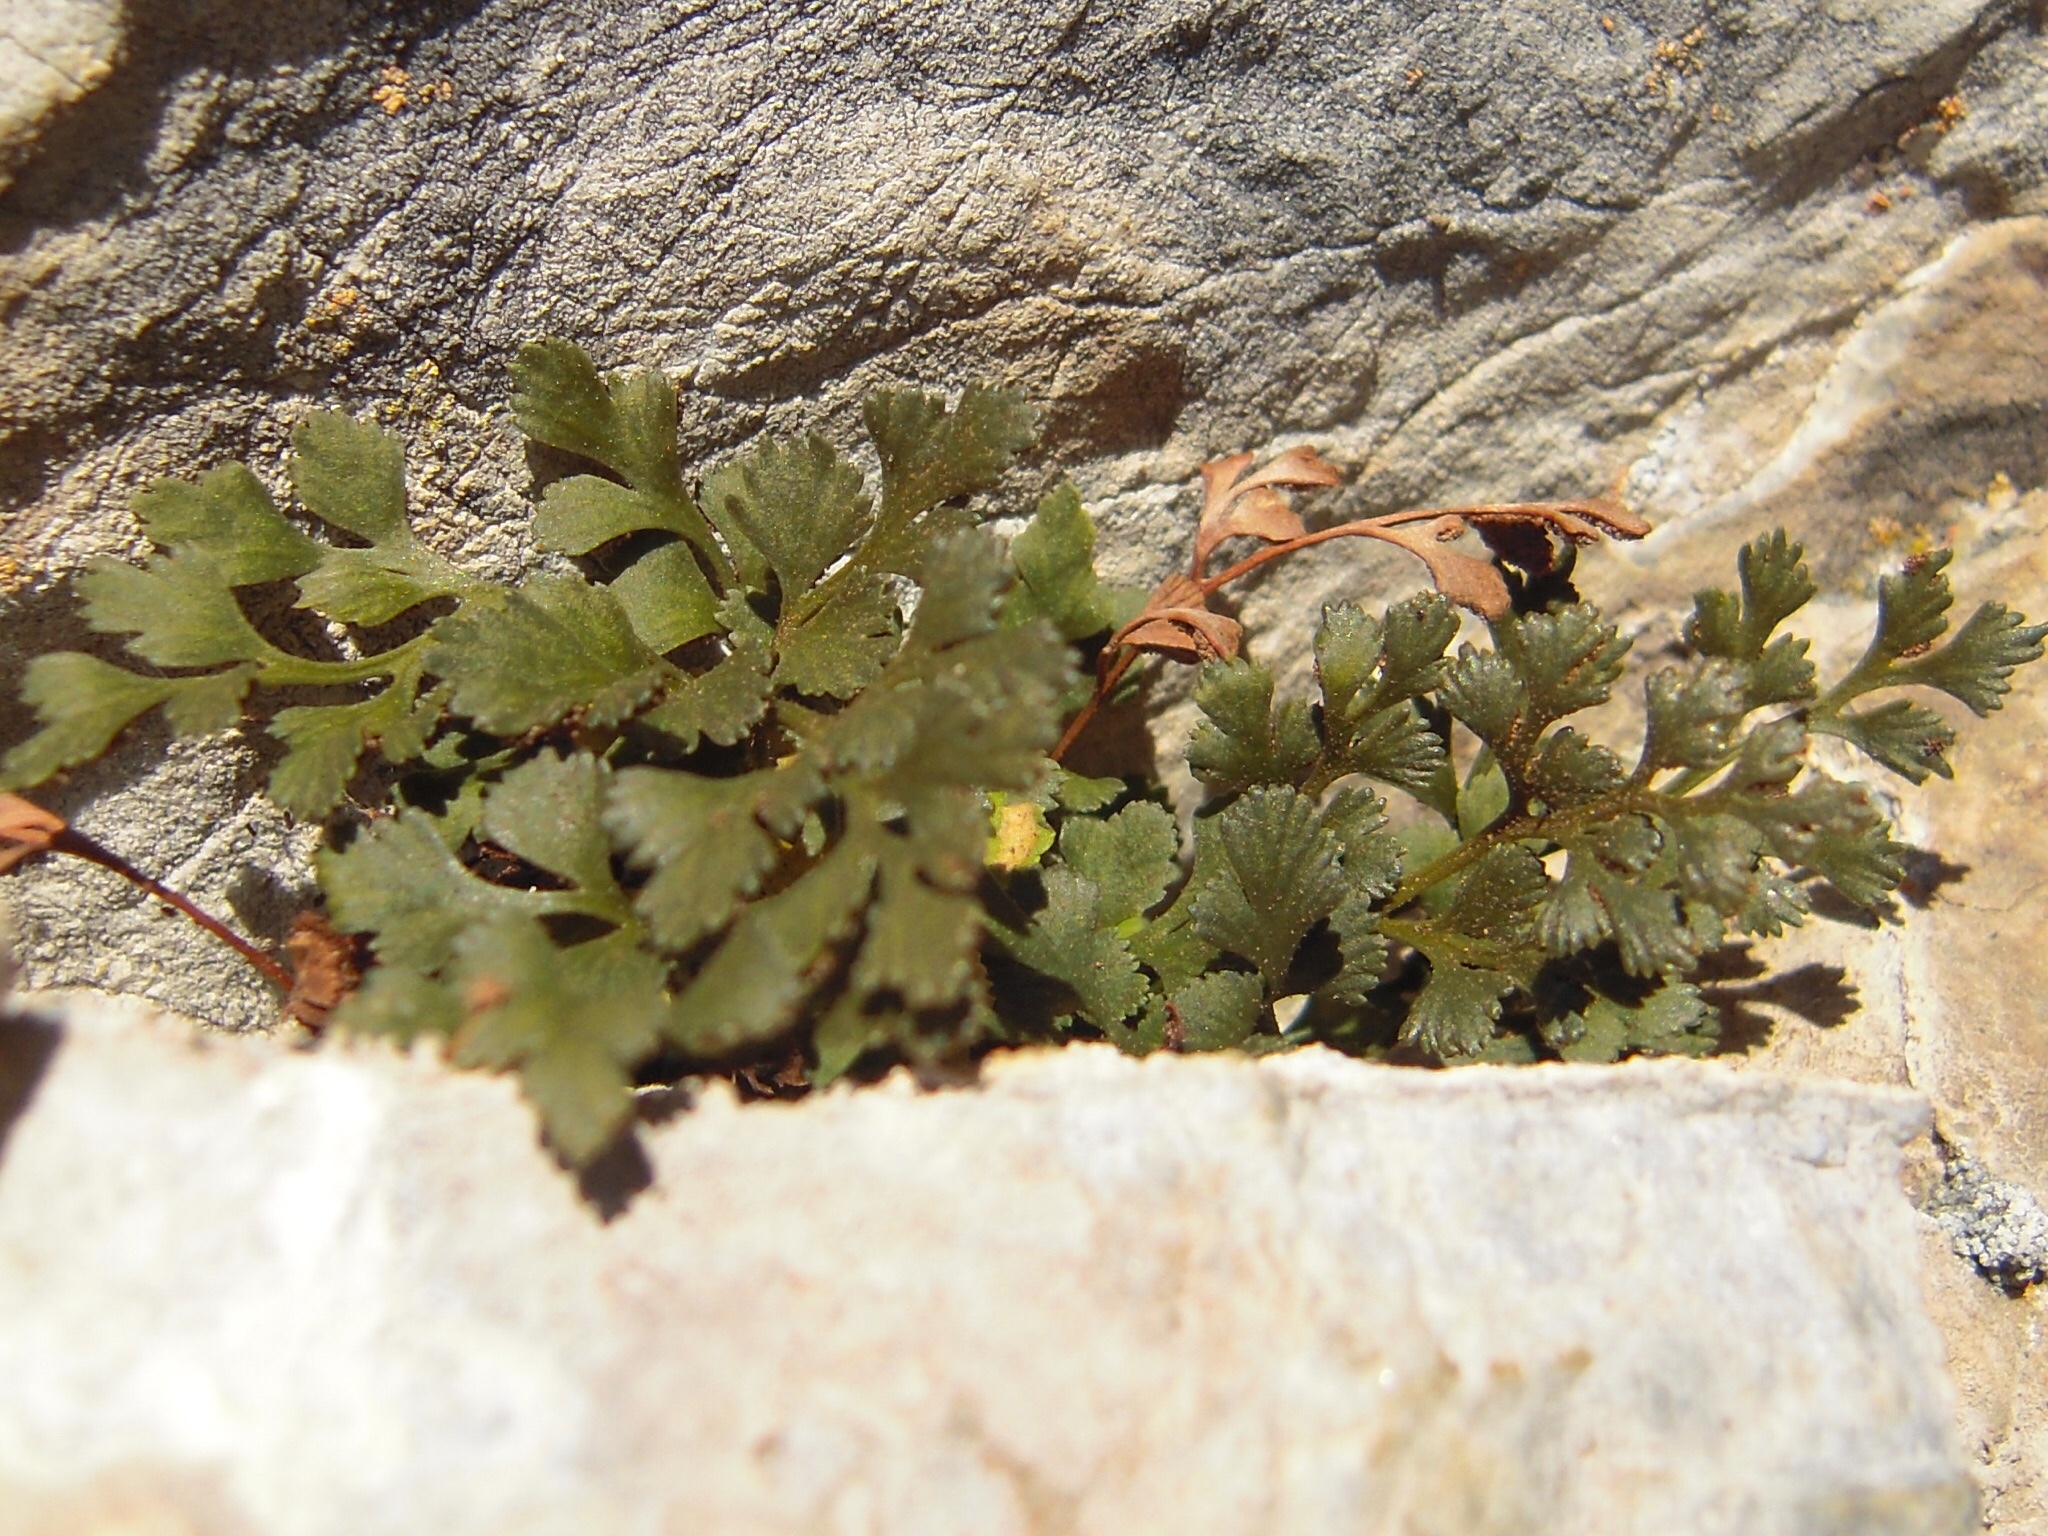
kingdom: Plantae
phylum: Tracheophyta
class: Polypodiopsida
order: Polypodiales
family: Aspleniaceae
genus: Asplenium
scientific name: Asplenium ruta-muraria
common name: Wall-rue
